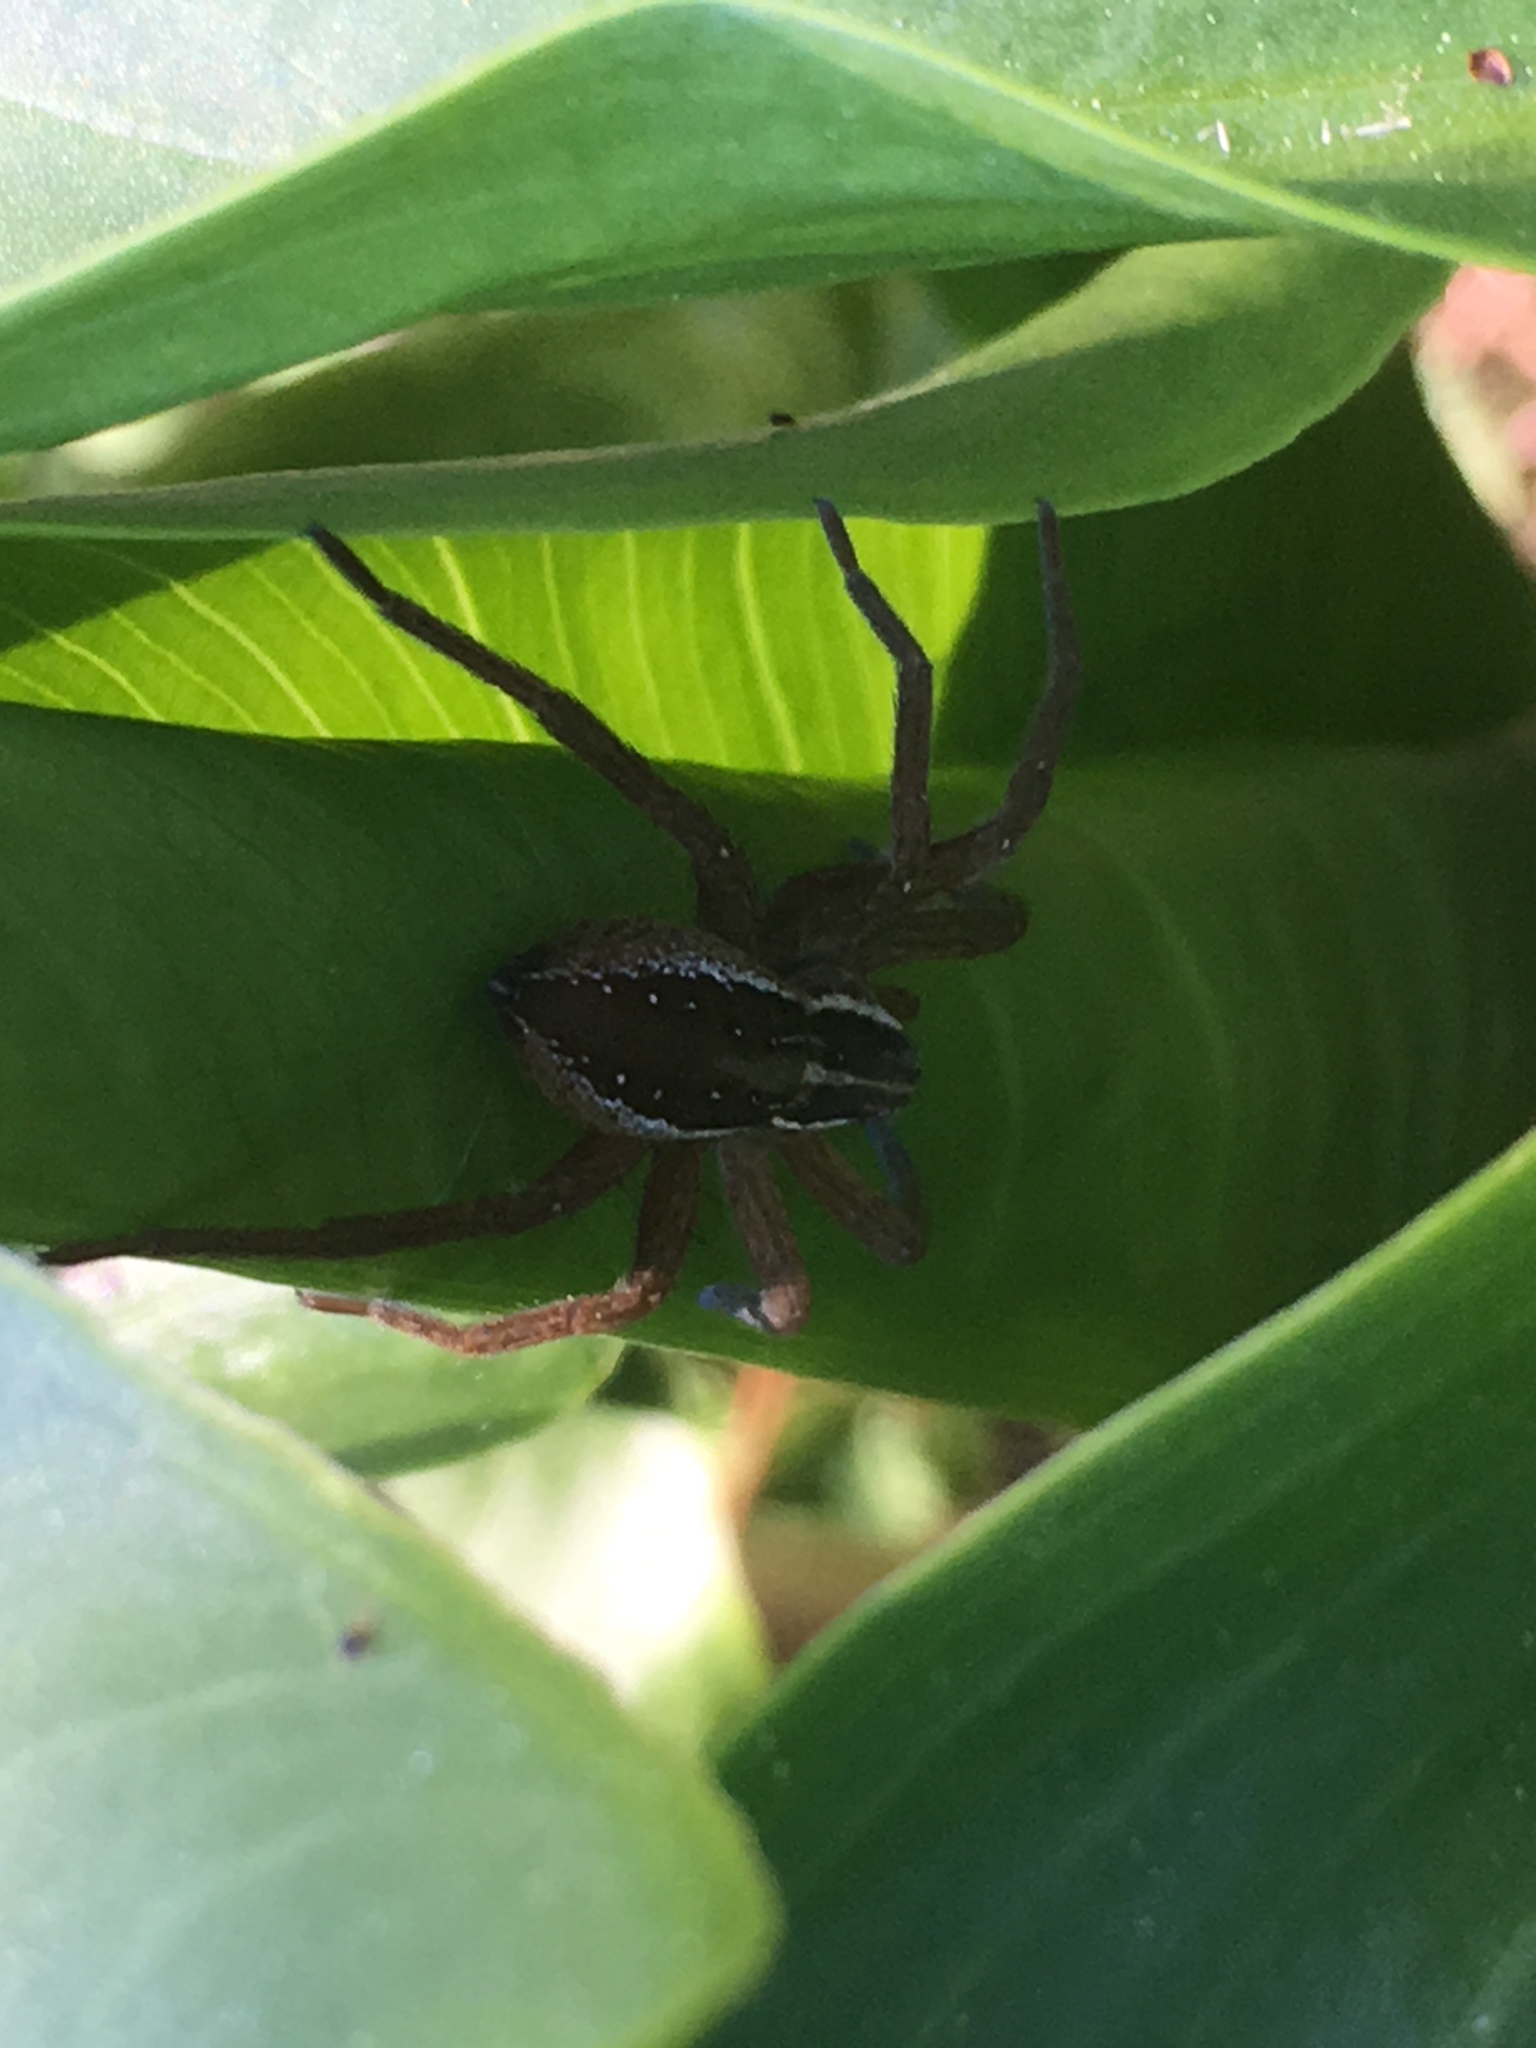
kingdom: Animalia
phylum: Arthropoda
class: Arachnida
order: Araneae
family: Pisauridae
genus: Dolomedes
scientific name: Dolomedes minor
